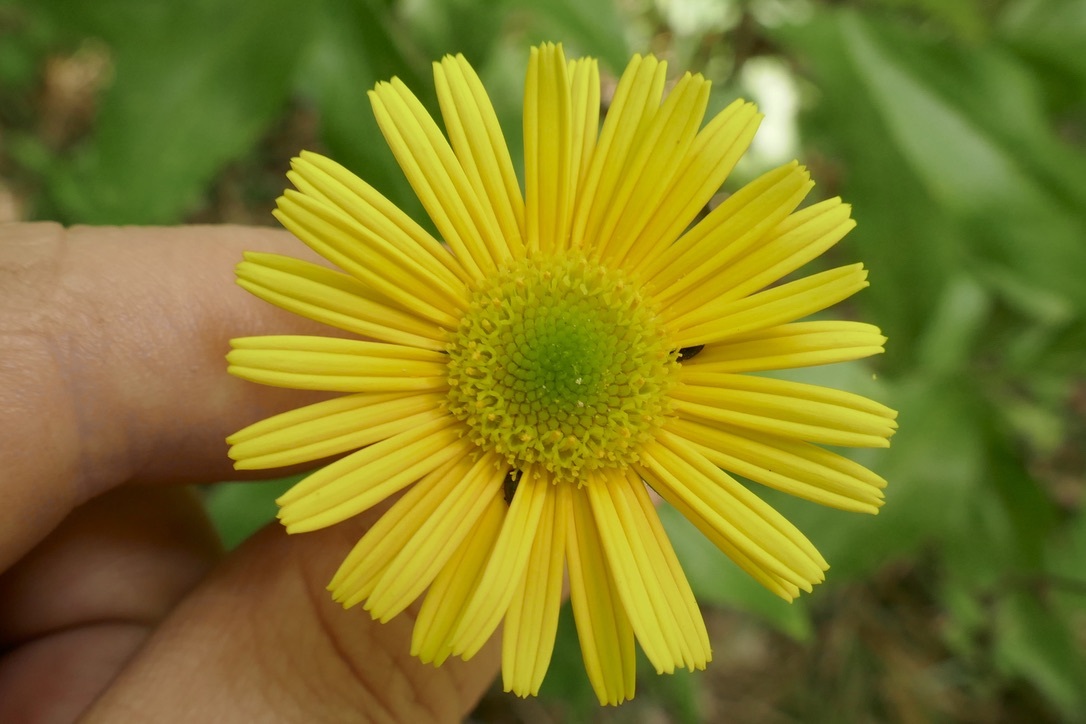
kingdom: Plantae
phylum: Tracheophyta
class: Magnoliopsida
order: Asterales
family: Asteraceae
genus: Buphthalmum
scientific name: Buphthalmum salicifolium
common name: Willow-leaved yellow-oxeye
